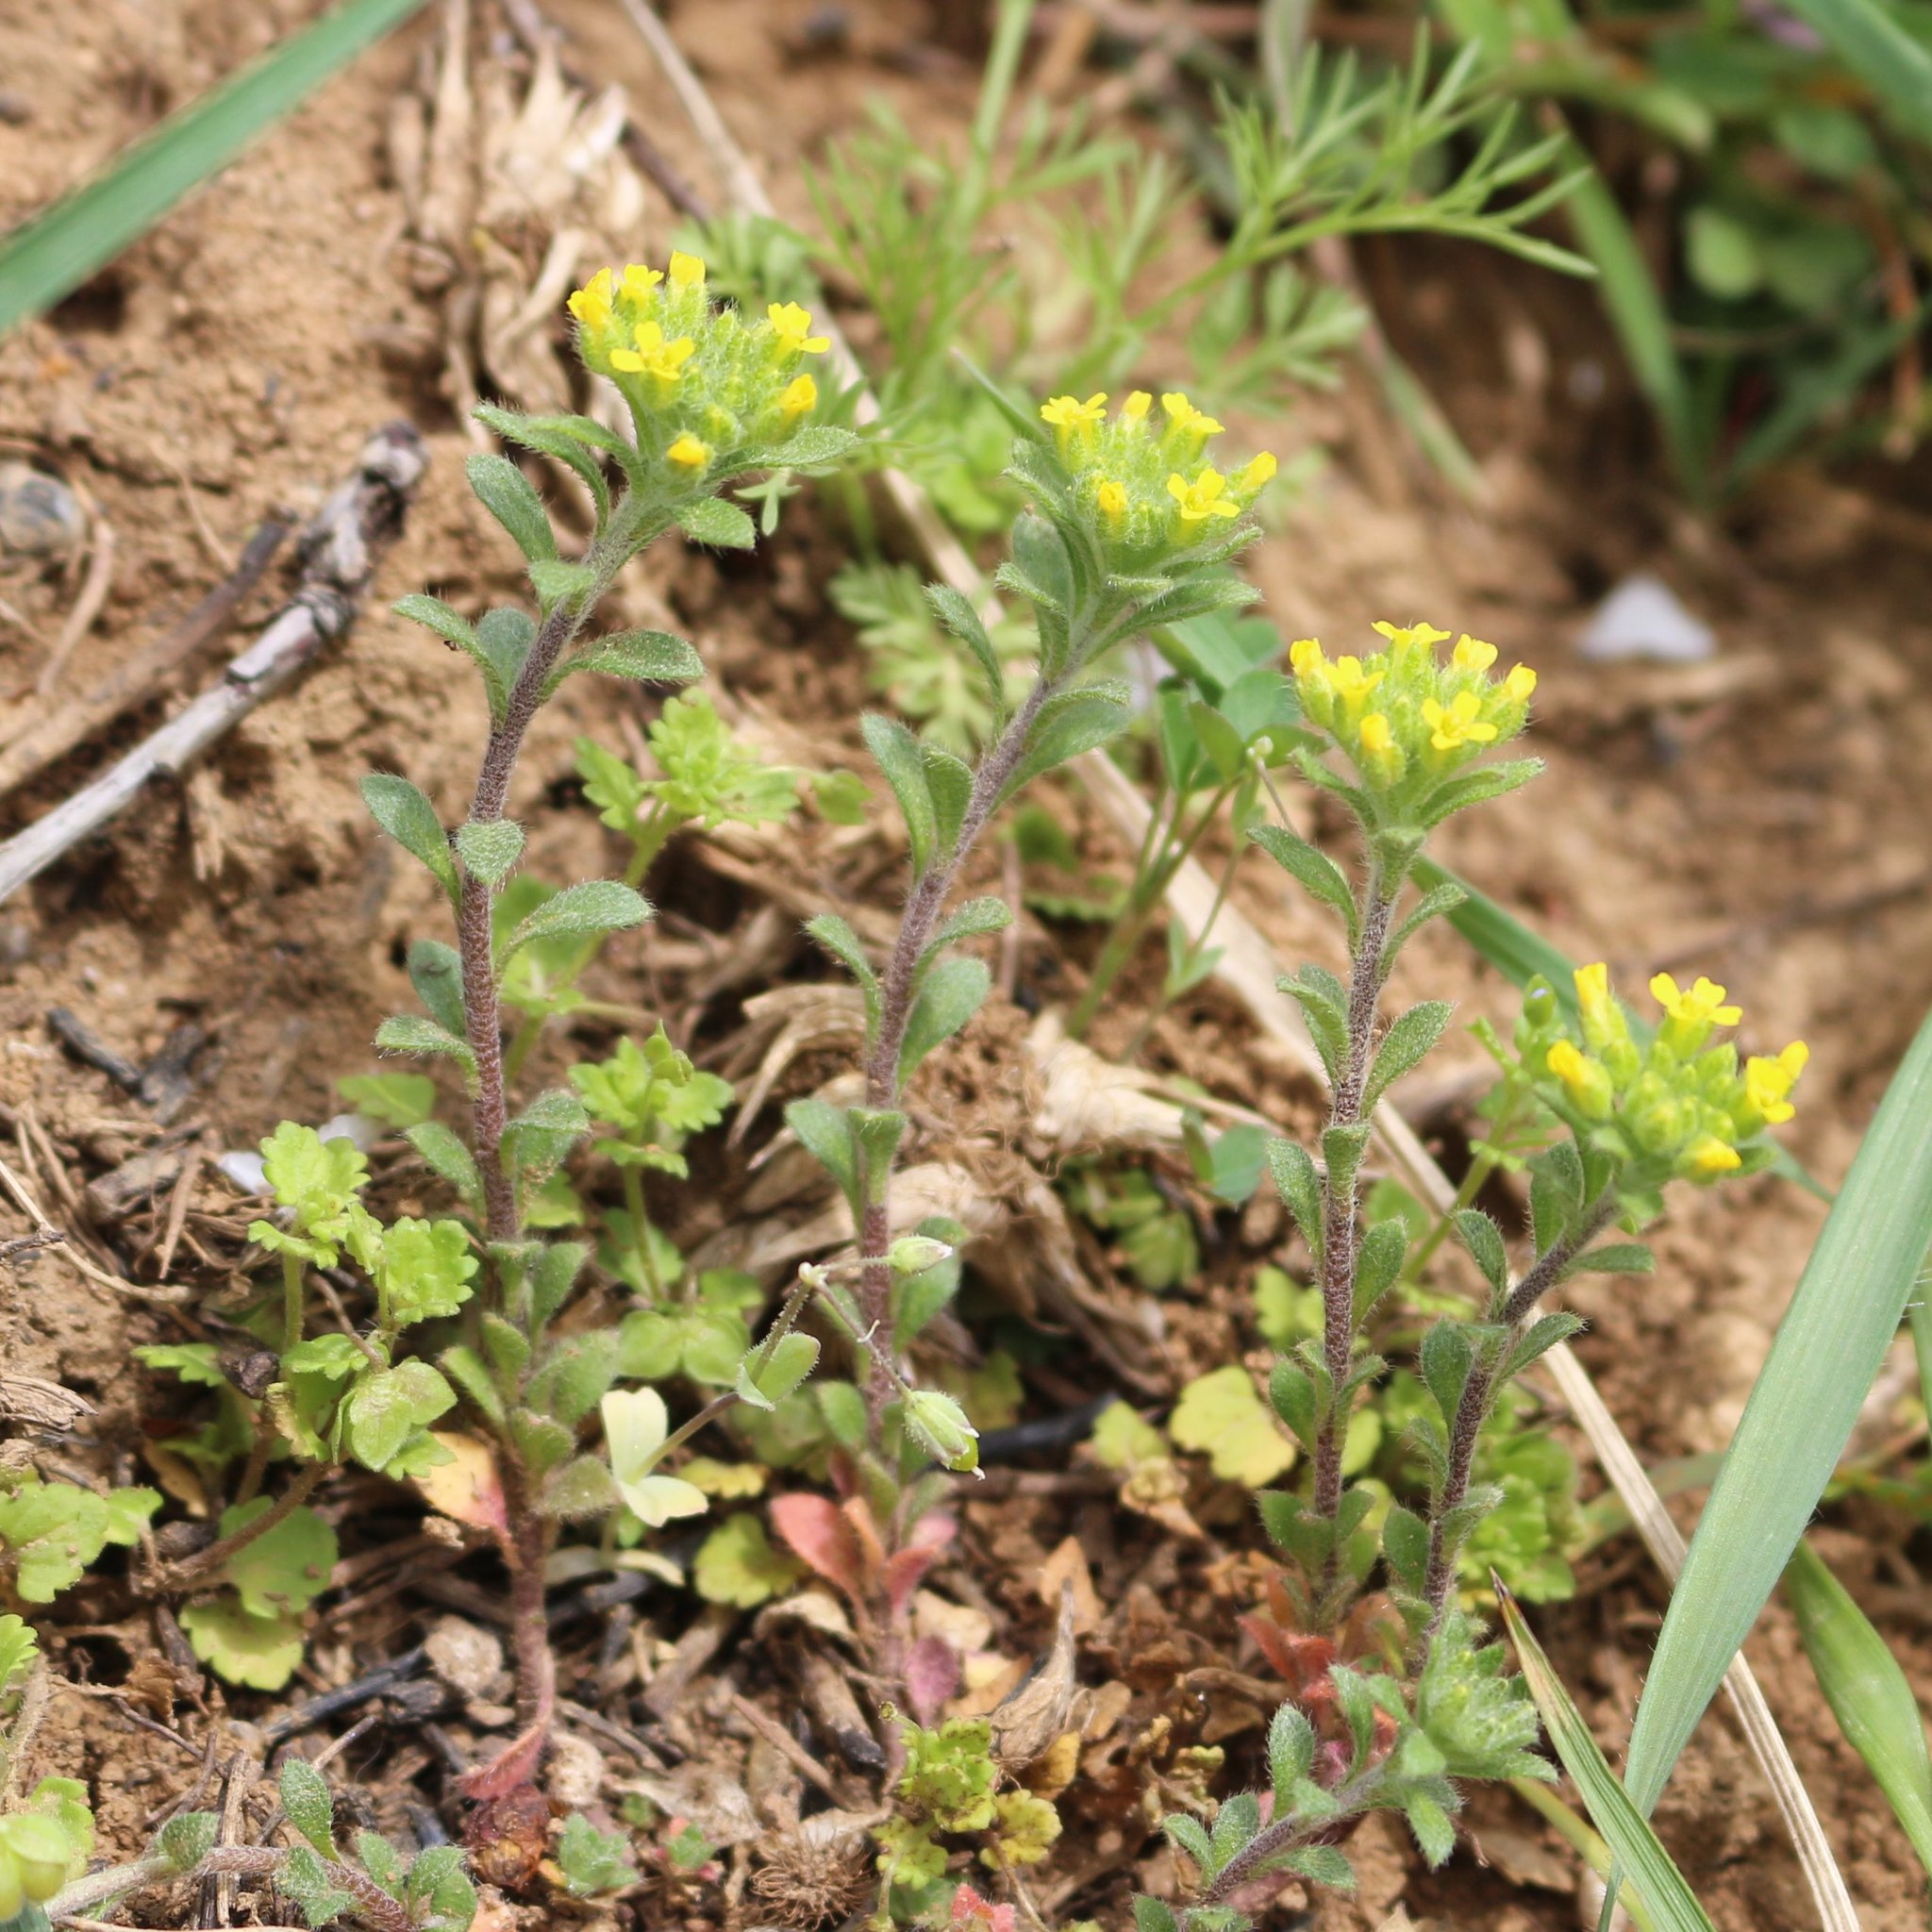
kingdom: Plantae
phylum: Tracheophyta
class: Magnoliopsida
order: Brassicales
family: Brassicaceae
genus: Alyssum
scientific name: Alyssum turkestanicum
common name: Desert alyssum
